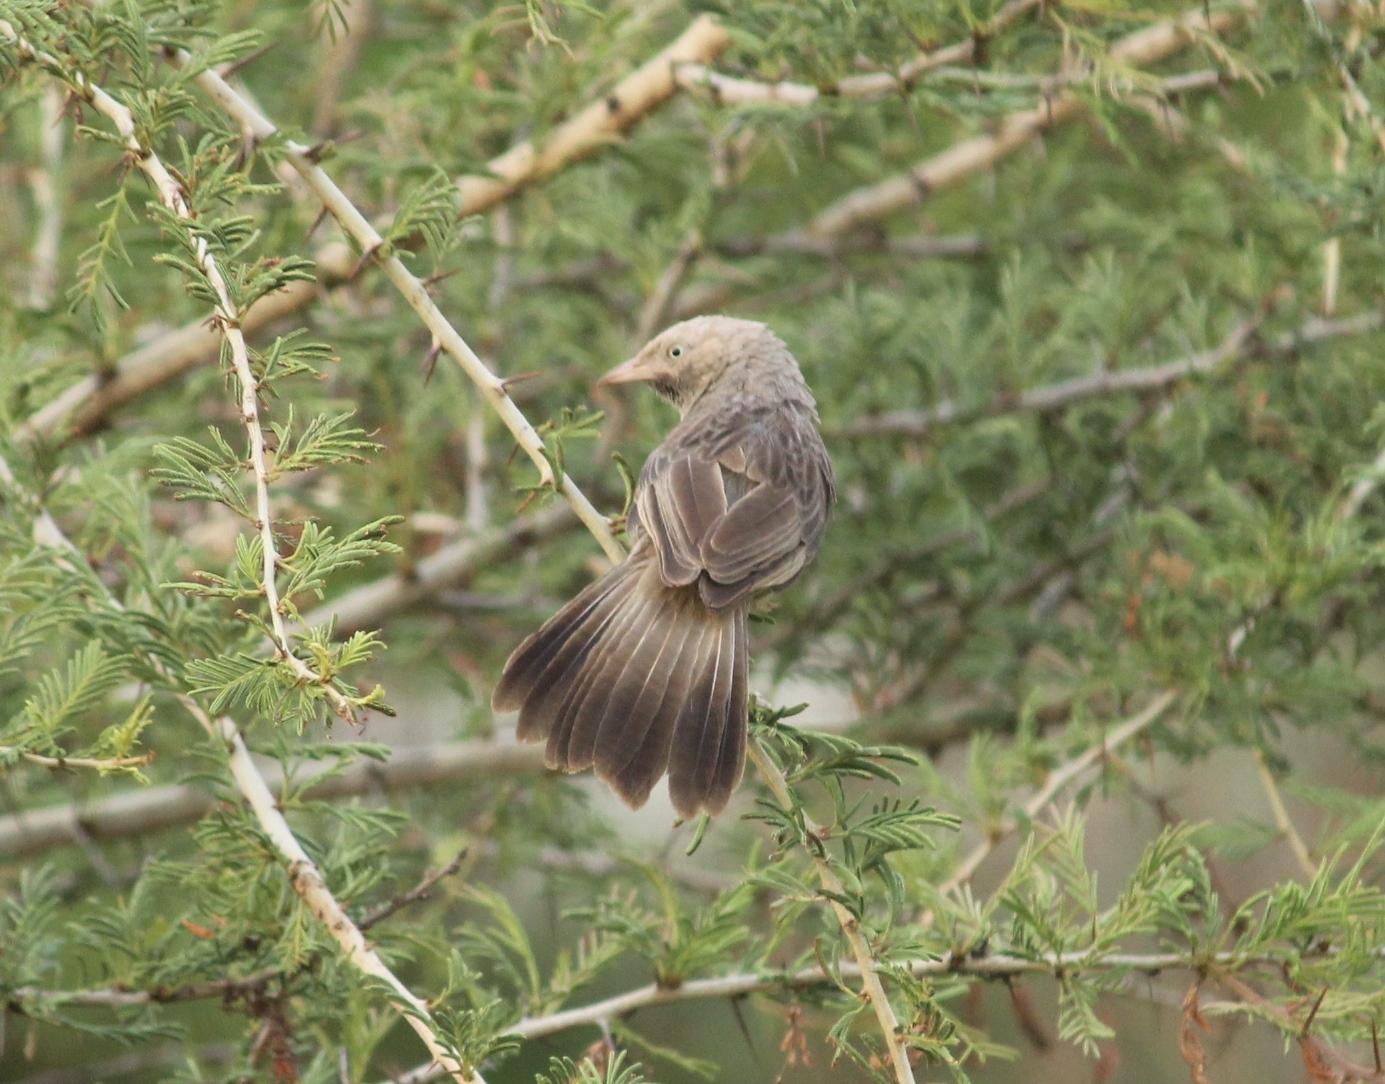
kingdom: Animalia
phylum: Chordata
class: Aves
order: Passeriformes
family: Leiothrichidae
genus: Turdoides
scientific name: Turdoides affinis
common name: Yellow-billed babbler
